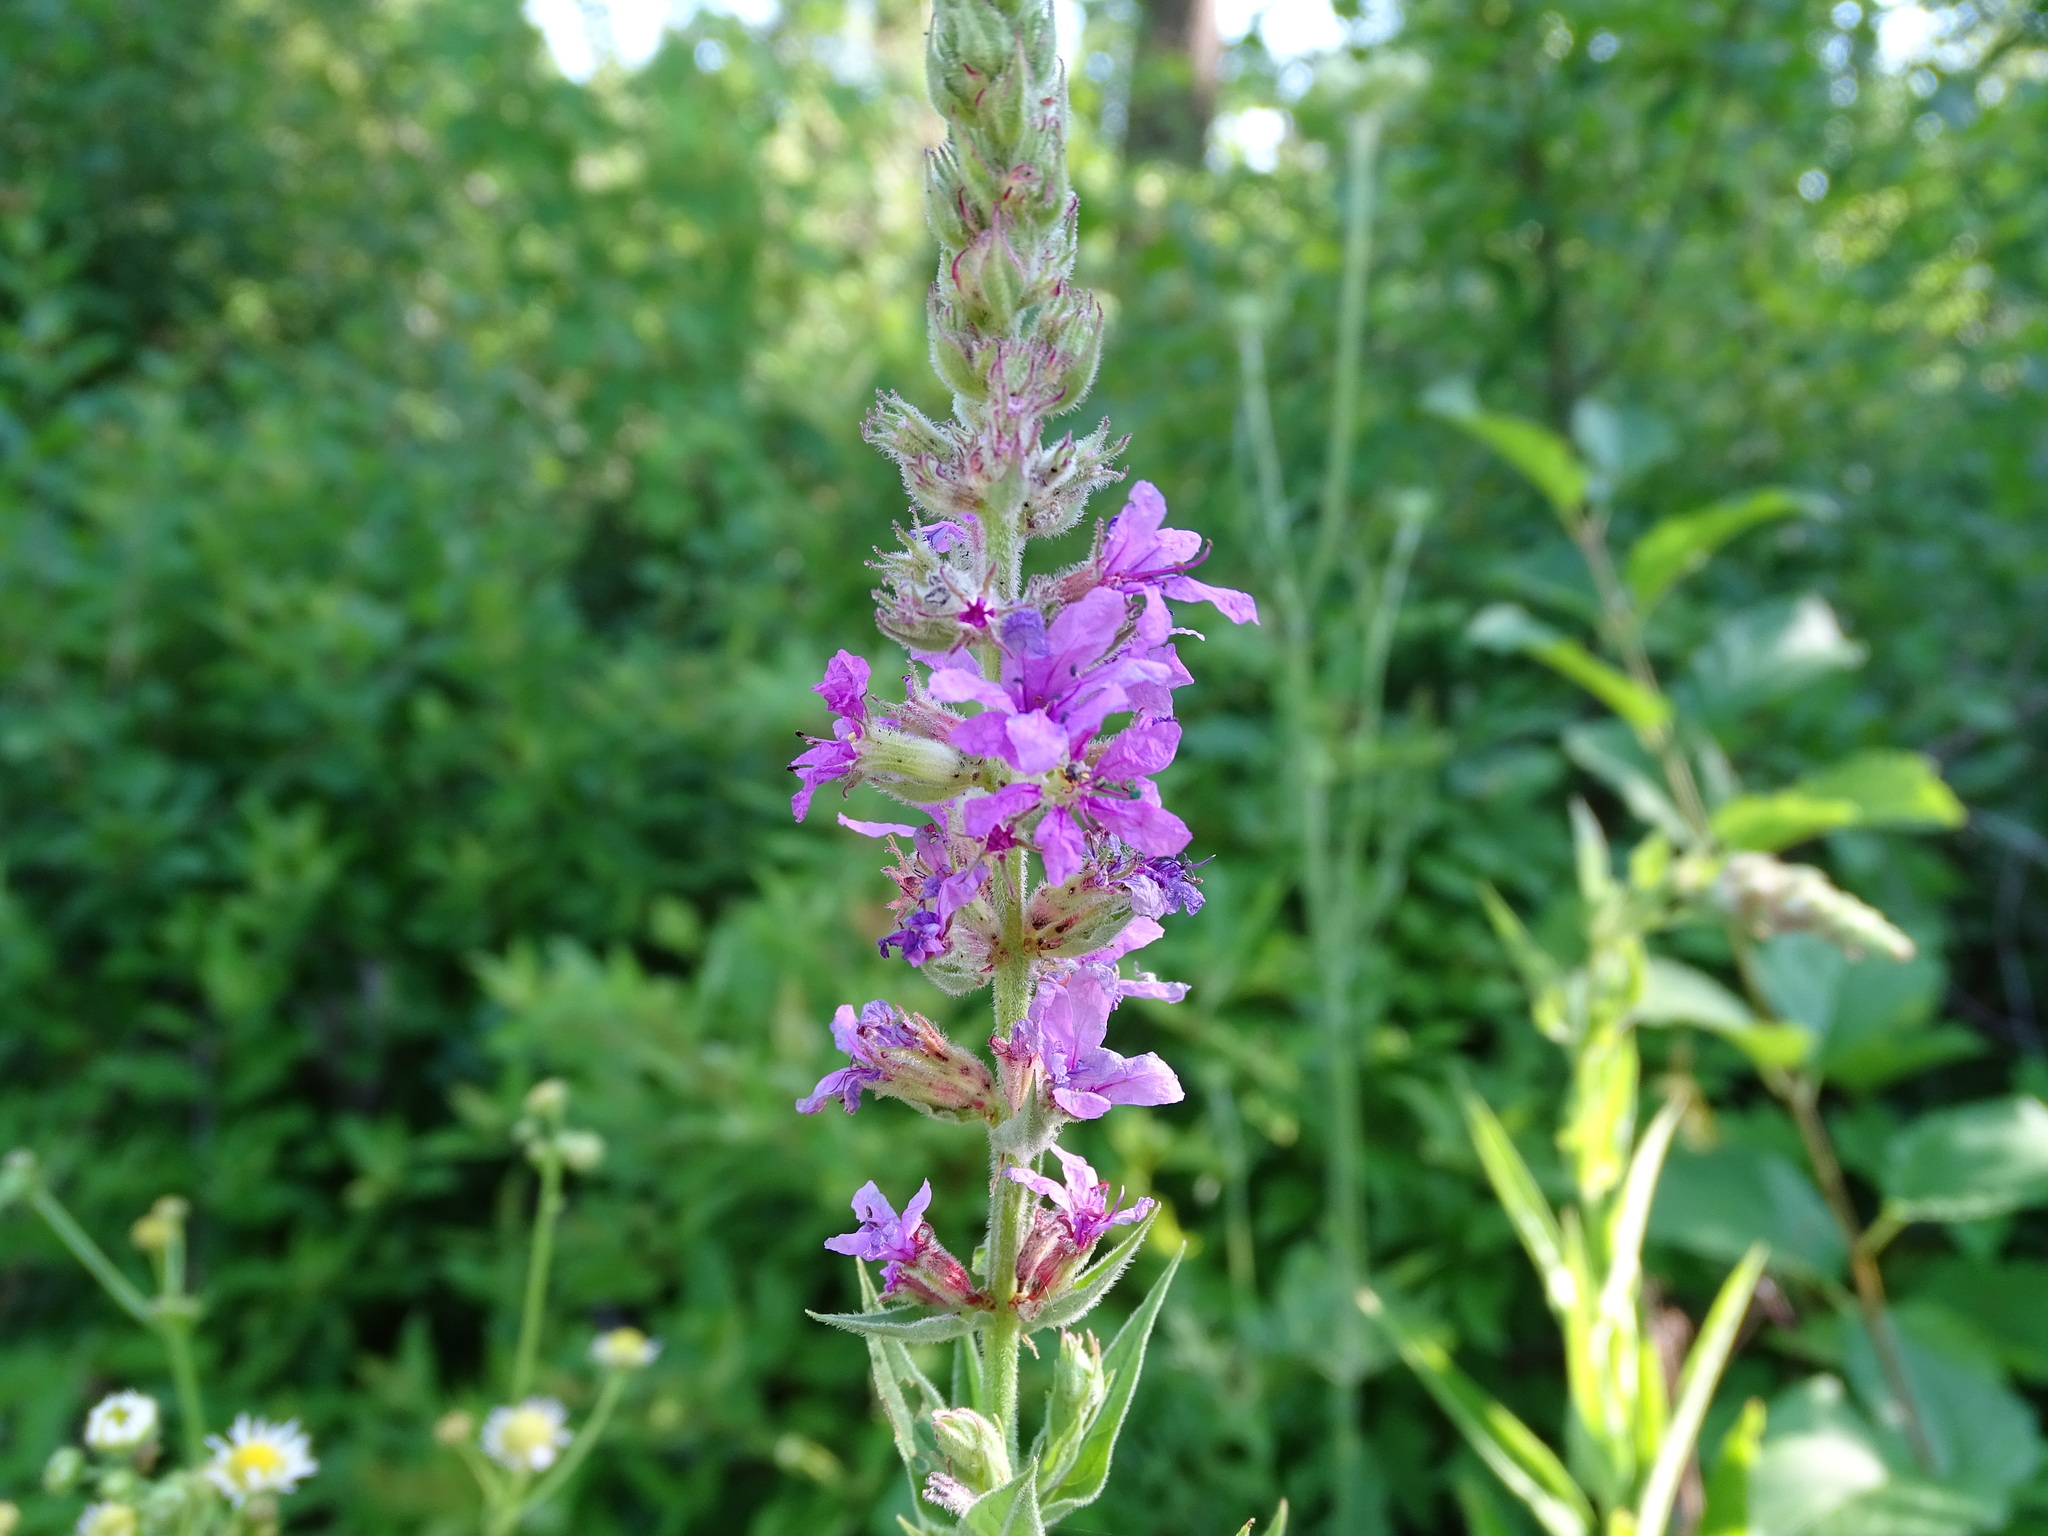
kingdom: Plantae
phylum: Tracheophyta
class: Magnoliopsida
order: Myrtales
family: Lythraceae
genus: Lythrum
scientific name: Lythrum salicaria
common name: Purple loosestrife
